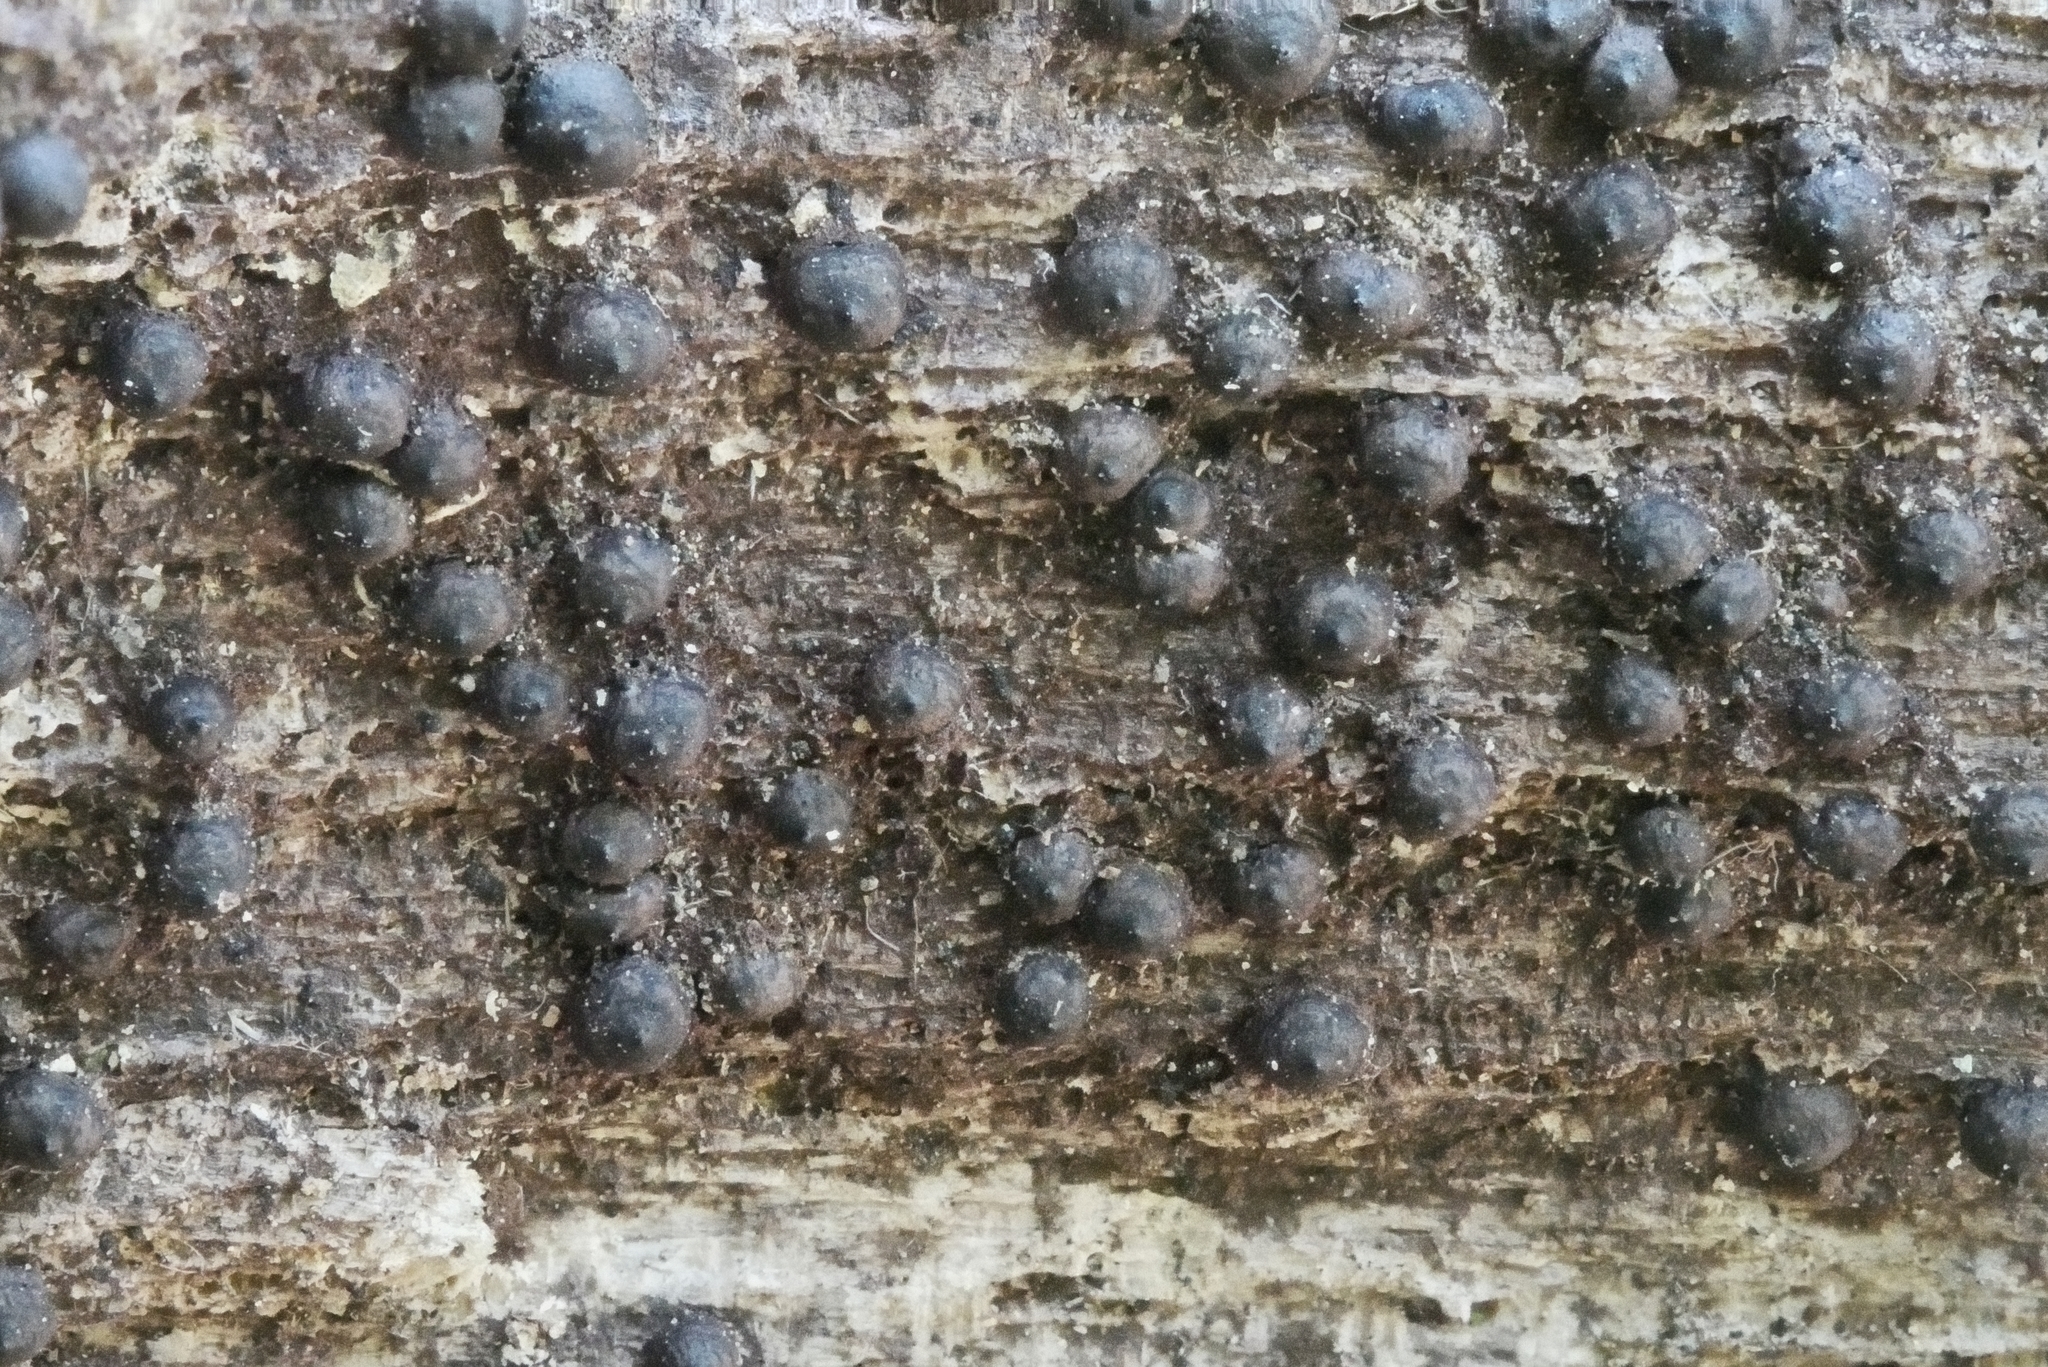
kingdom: Fungi
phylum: Ascomycota
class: Sordariomycetes
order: Xylariales
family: Xylariaceae
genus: Rosellinia
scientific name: Rosellinia corticium
